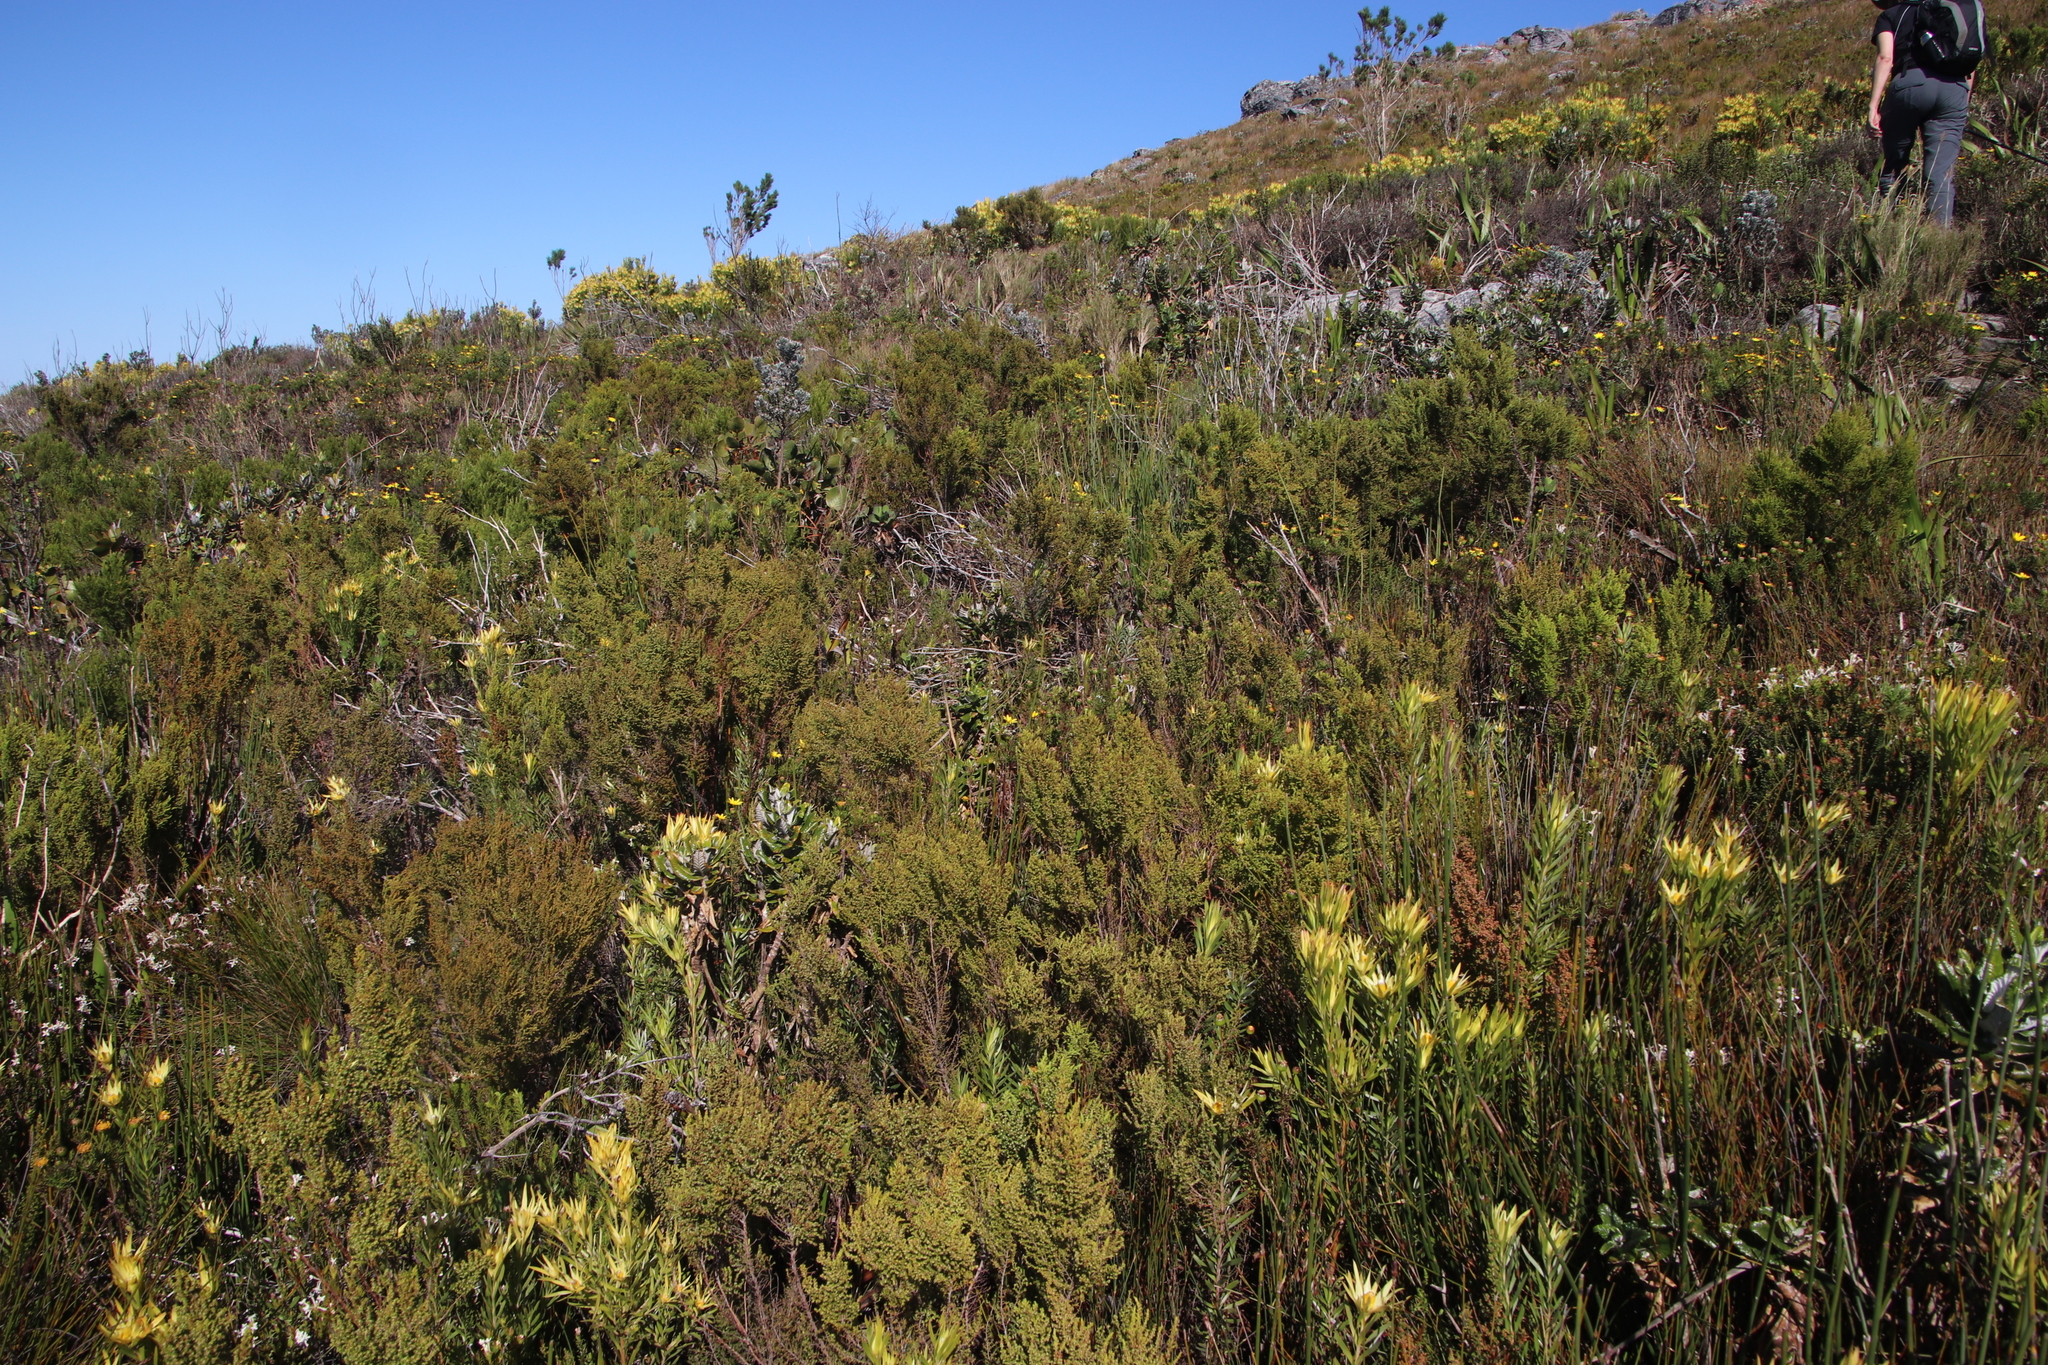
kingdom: Plantae
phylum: Tracheophyta
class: Magnoliopsida
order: Ericales
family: Ericaceae
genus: Erica
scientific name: Erica muscosa
